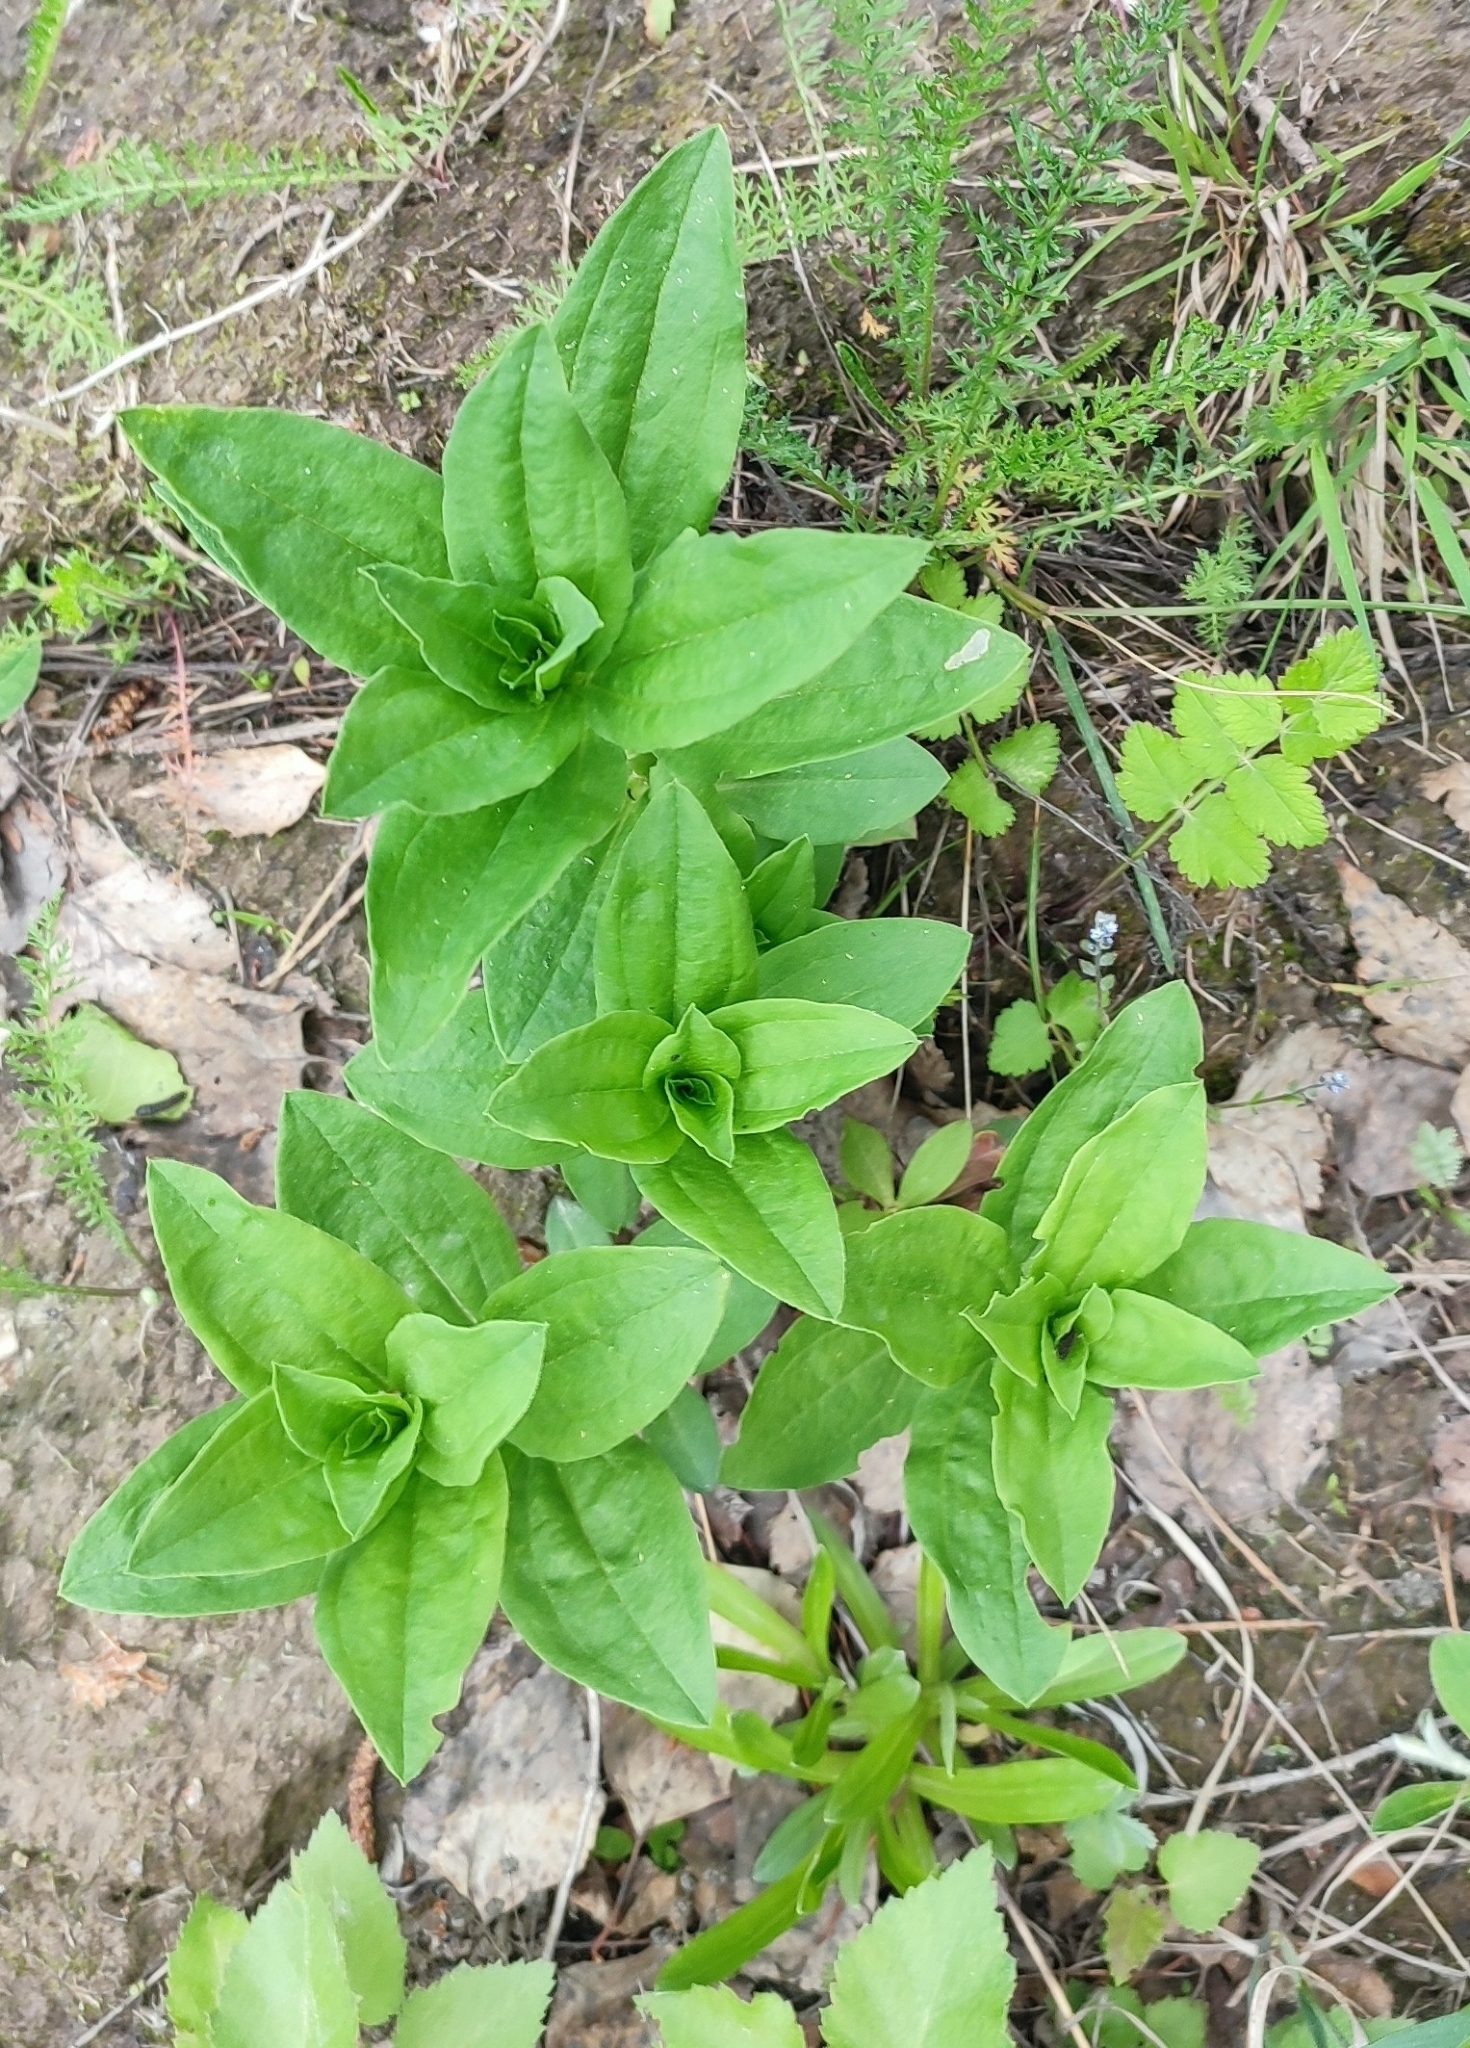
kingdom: Plantae
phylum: Tracheophyta
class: Magnoliopsida
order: Caryophyllales
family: Caryophyllaceae
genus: Saponaria
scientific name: Saponaria officinalis
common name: Soapwort
